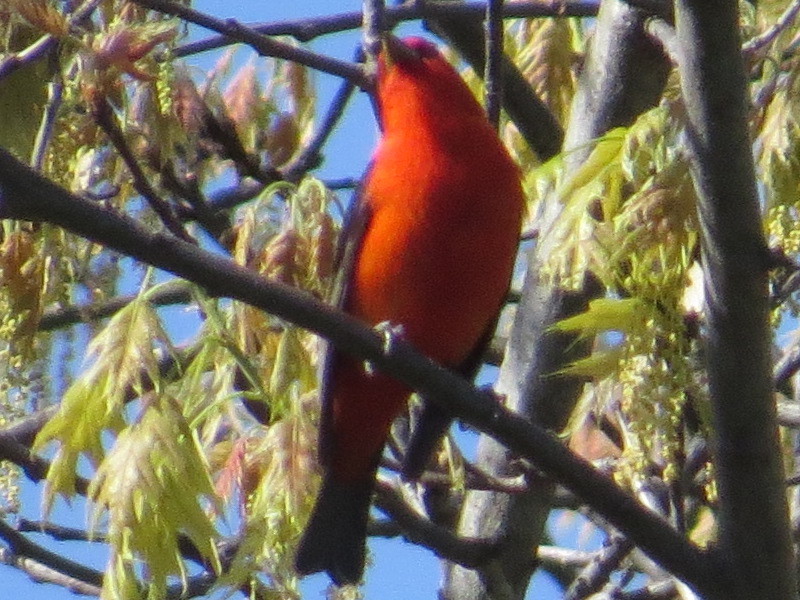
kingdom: Animalia
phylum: Chordata
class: Aves
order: Passeriformes
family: Cardinalidae
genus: Piranga
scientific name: Piranga olivacea
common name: Scarlet tanager
